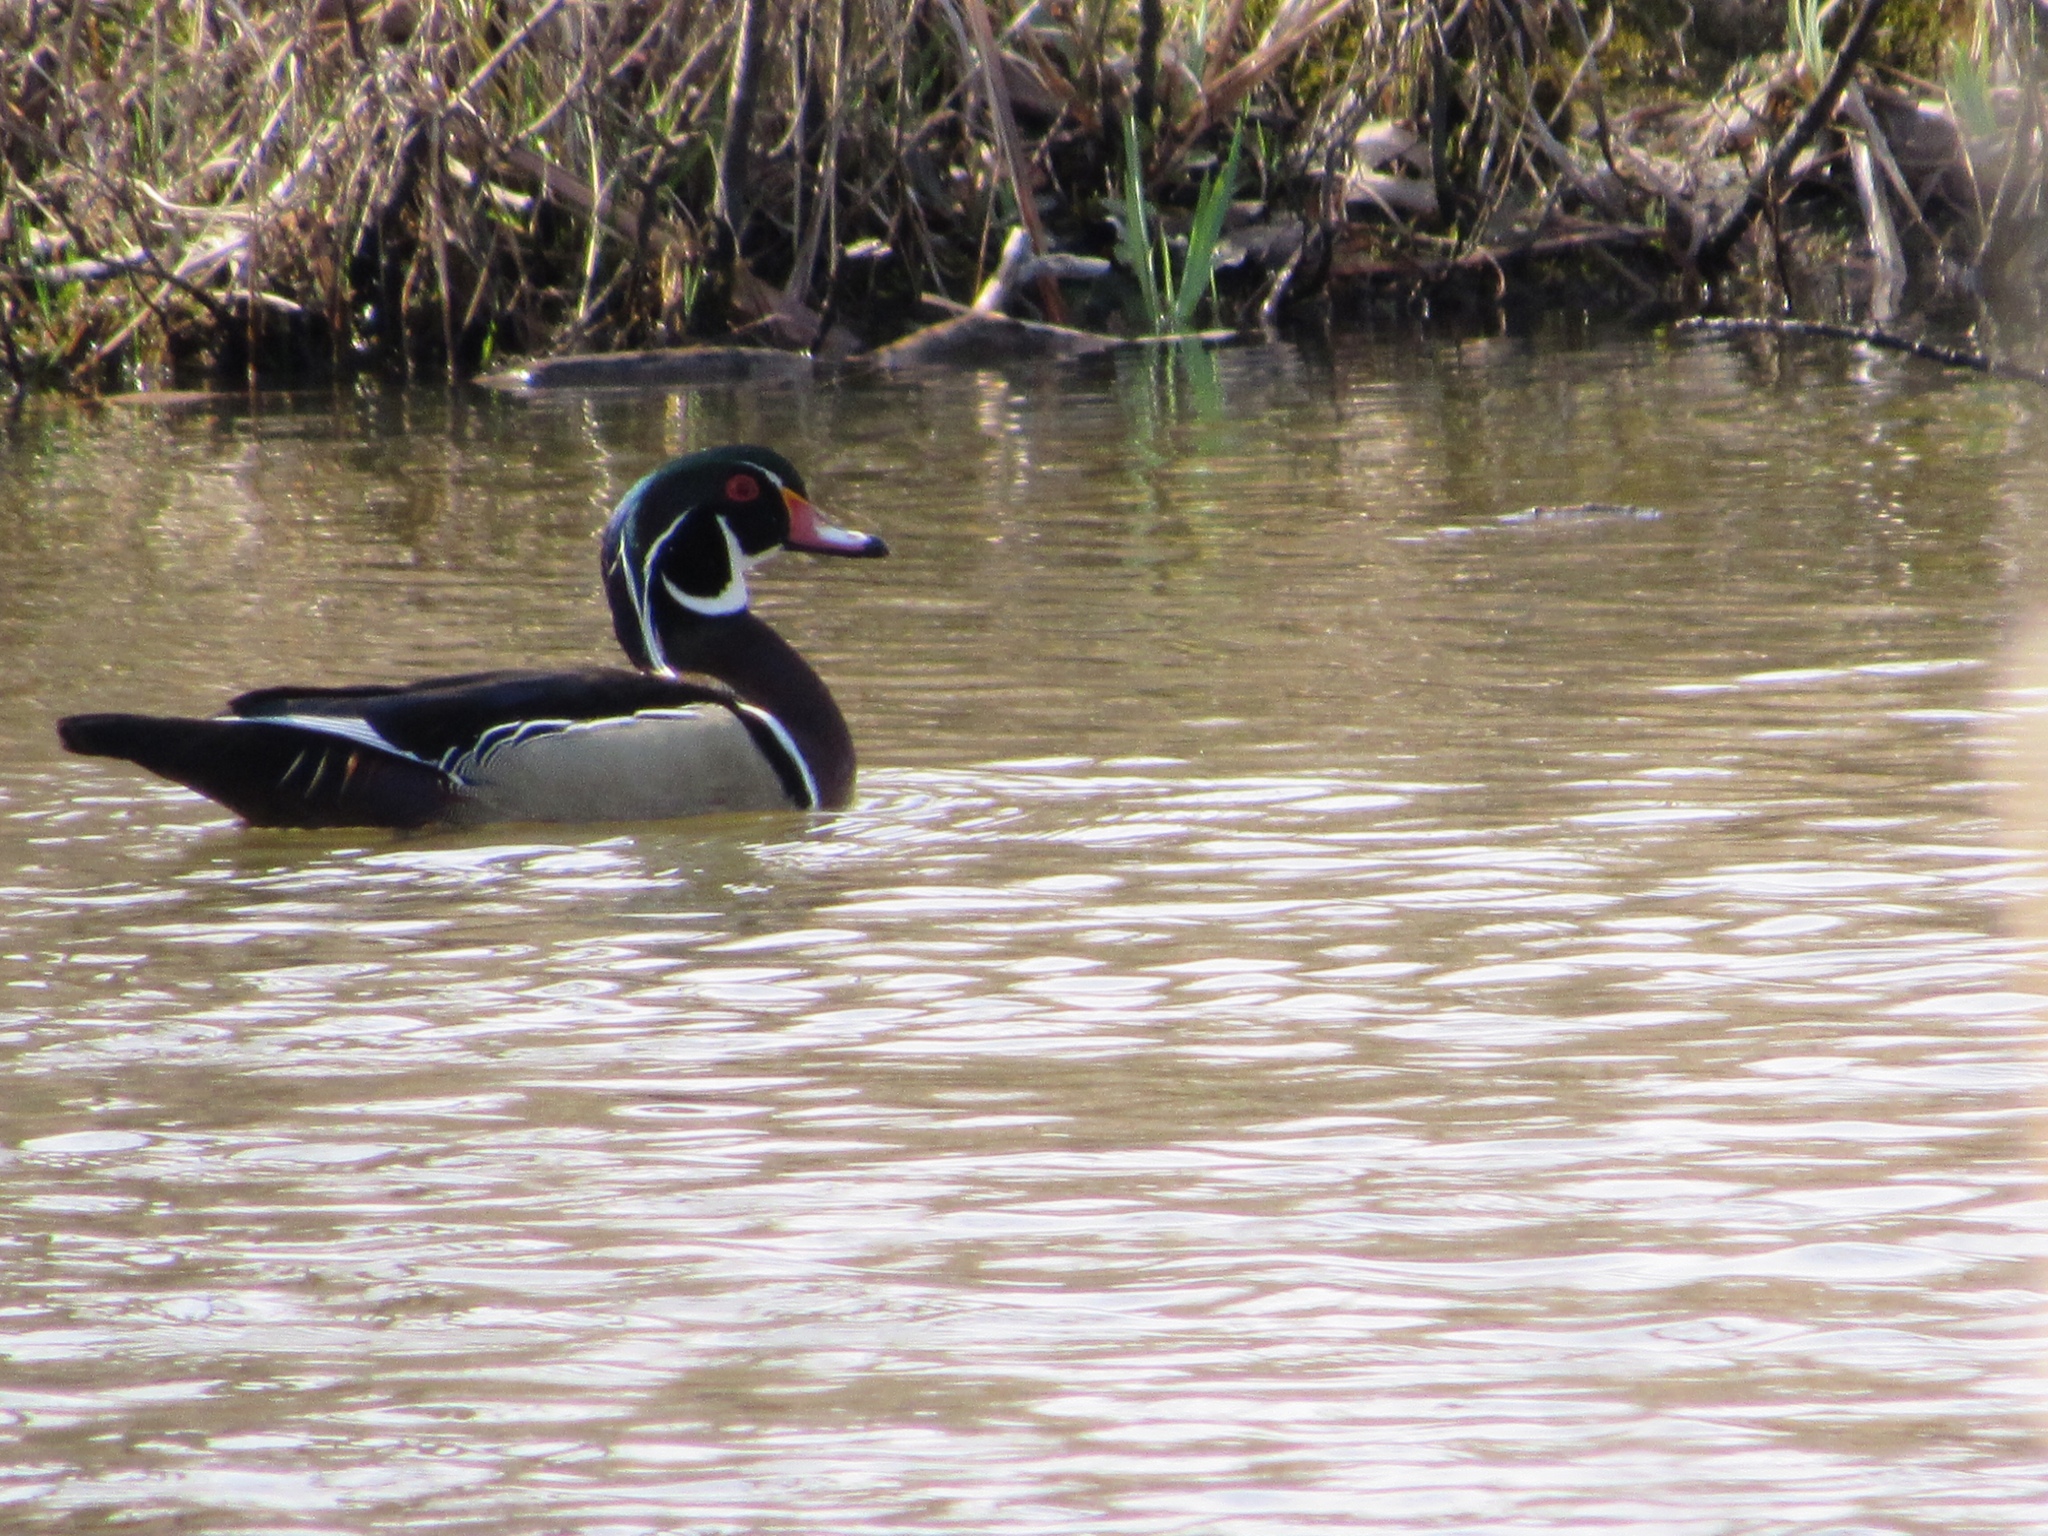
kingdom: Animalia
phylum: Chordata
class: Aves
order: Anseriformes
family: Anatidae
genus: Aix
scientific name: Aix sponsa
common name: Wood duck
